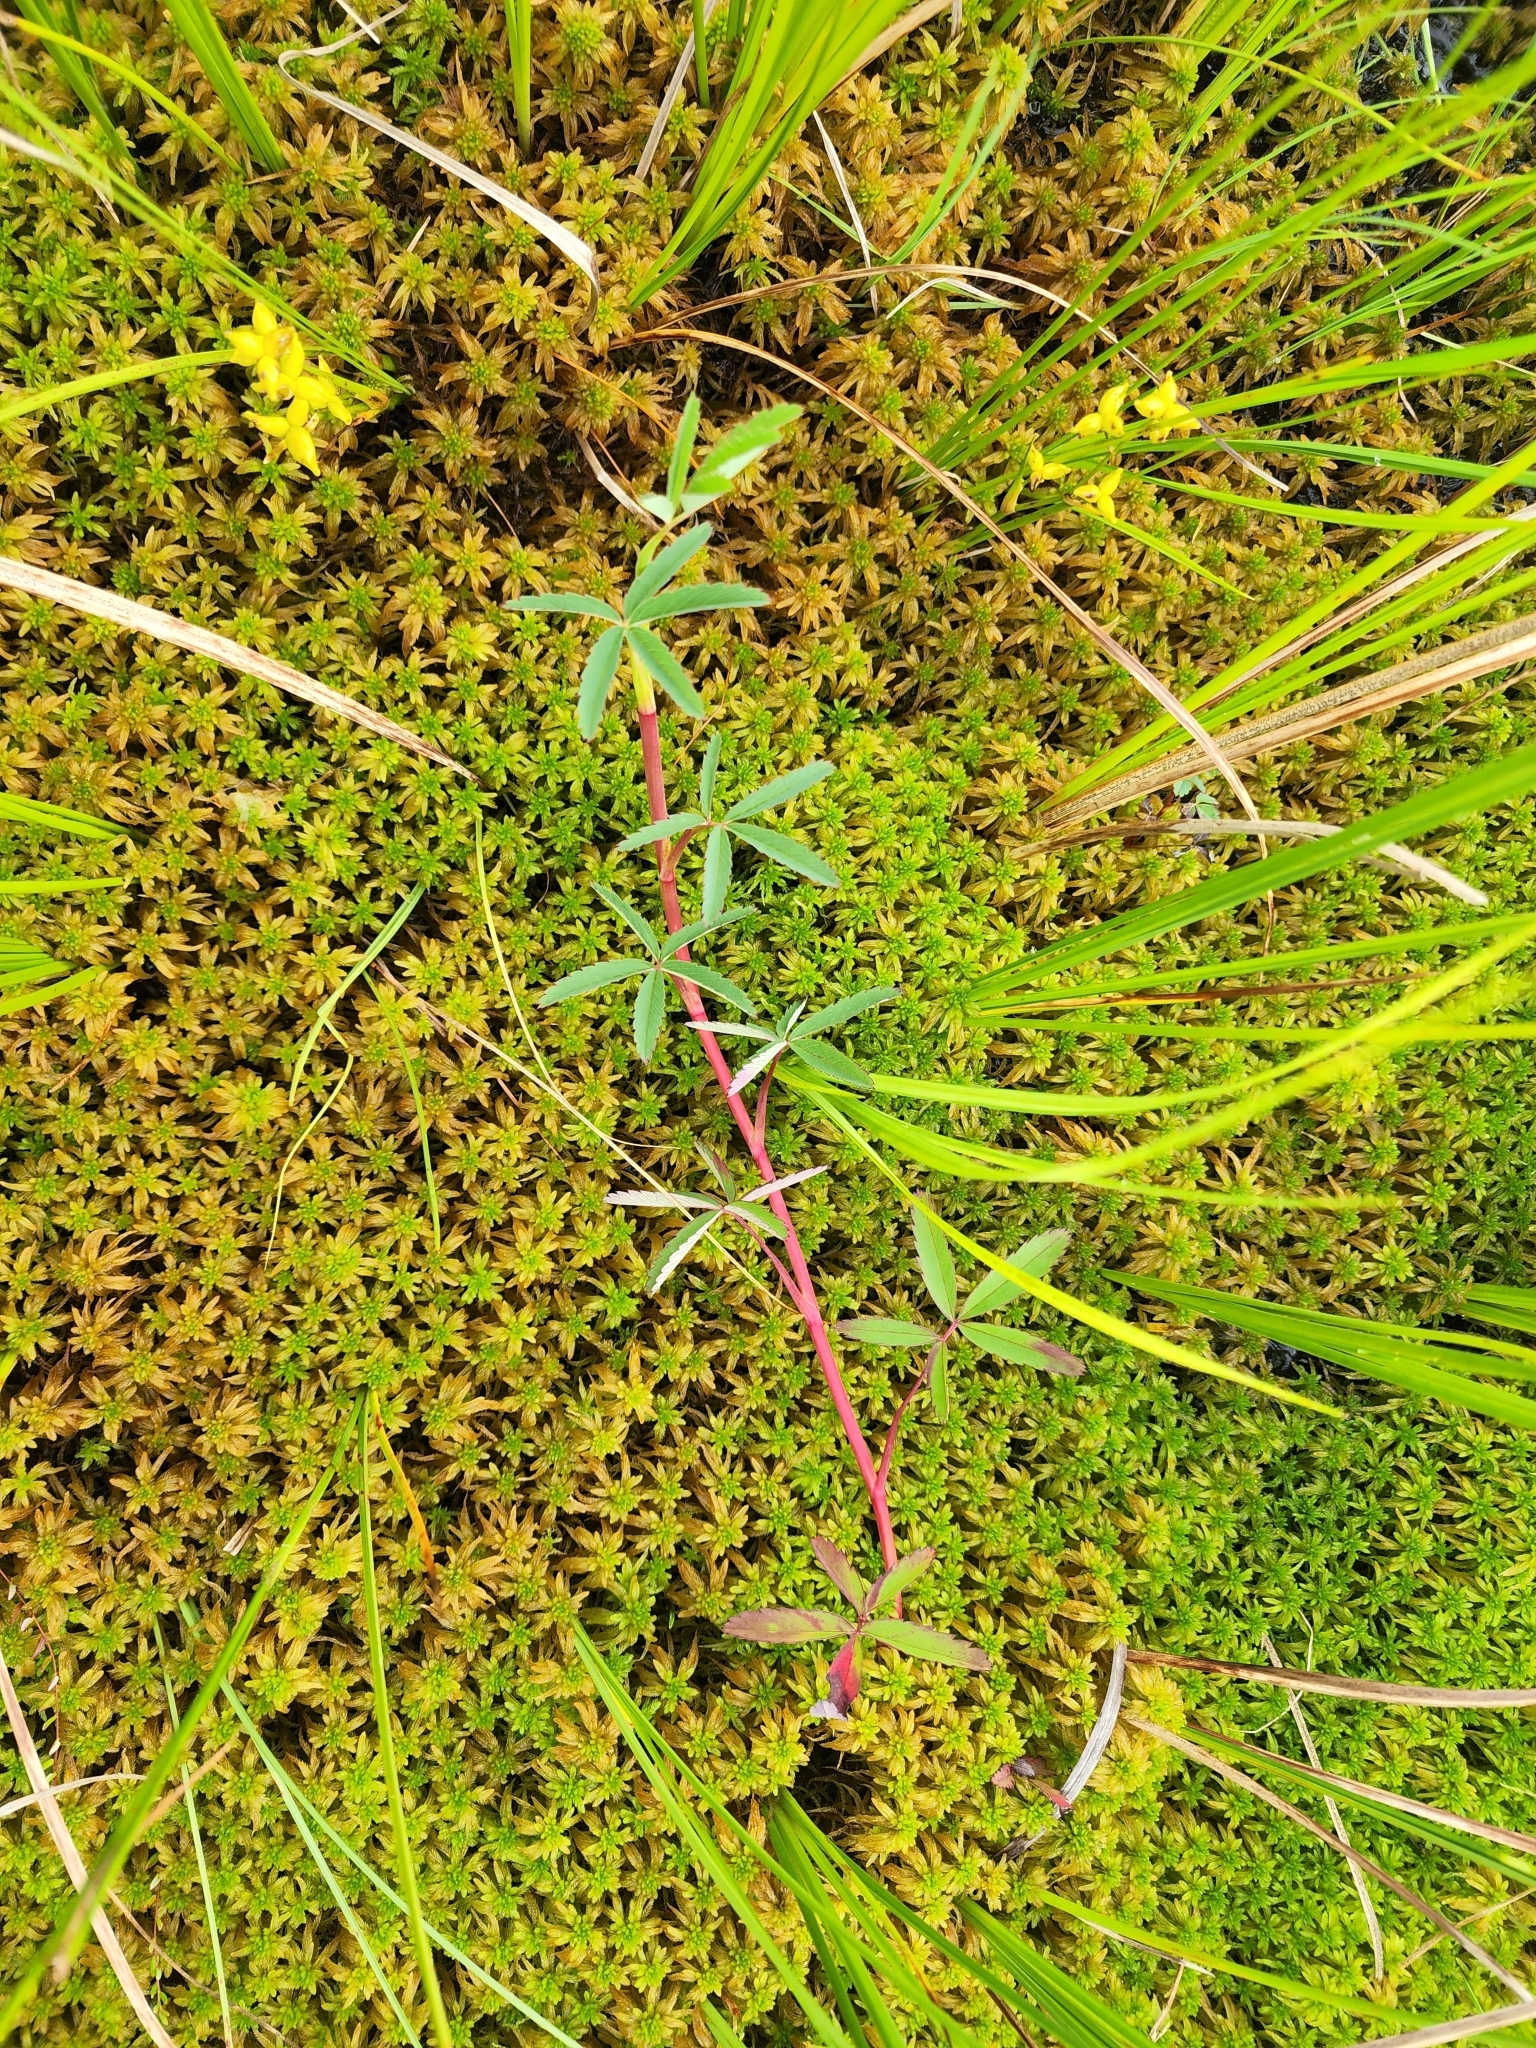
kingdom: Plantae
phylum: Tracheophyta
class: Magnoliopsida
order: Rosales
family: Rosaceae
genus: Comarum
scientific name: Comarum palustre
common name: Marsh cinquefoil
